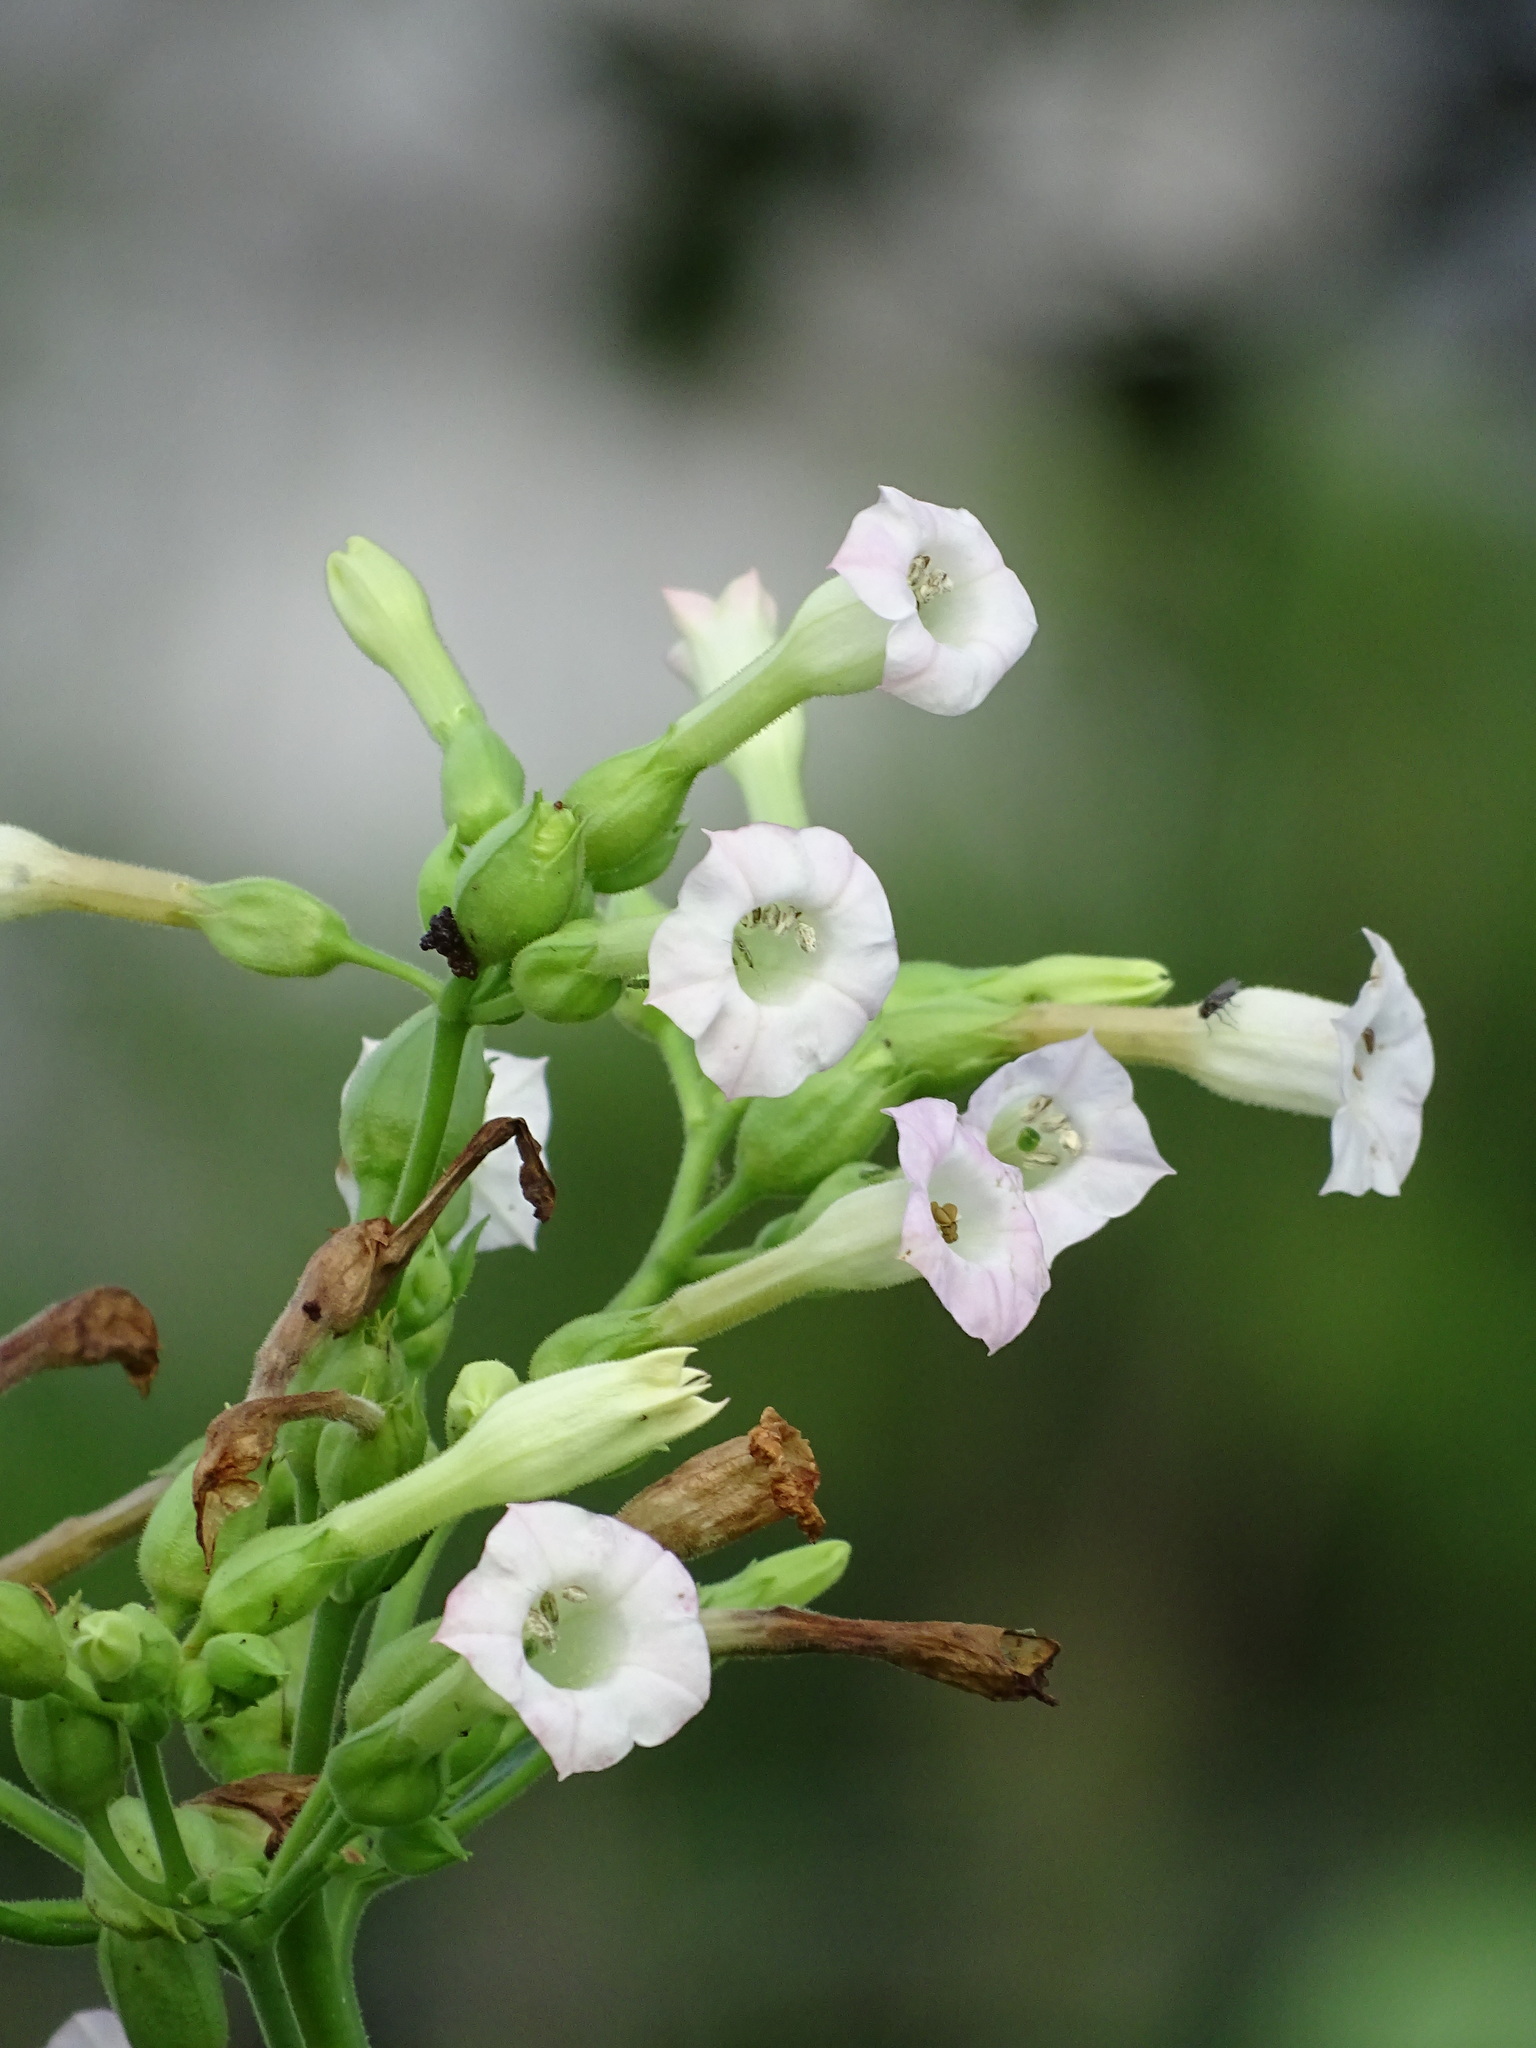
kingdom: Plantae
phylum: Tracheophyta
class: Magnoliopsida
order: Solanales
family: Solanaceae
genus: Nicotiana
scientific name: Nicotiana tabacum
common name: Tobacco
